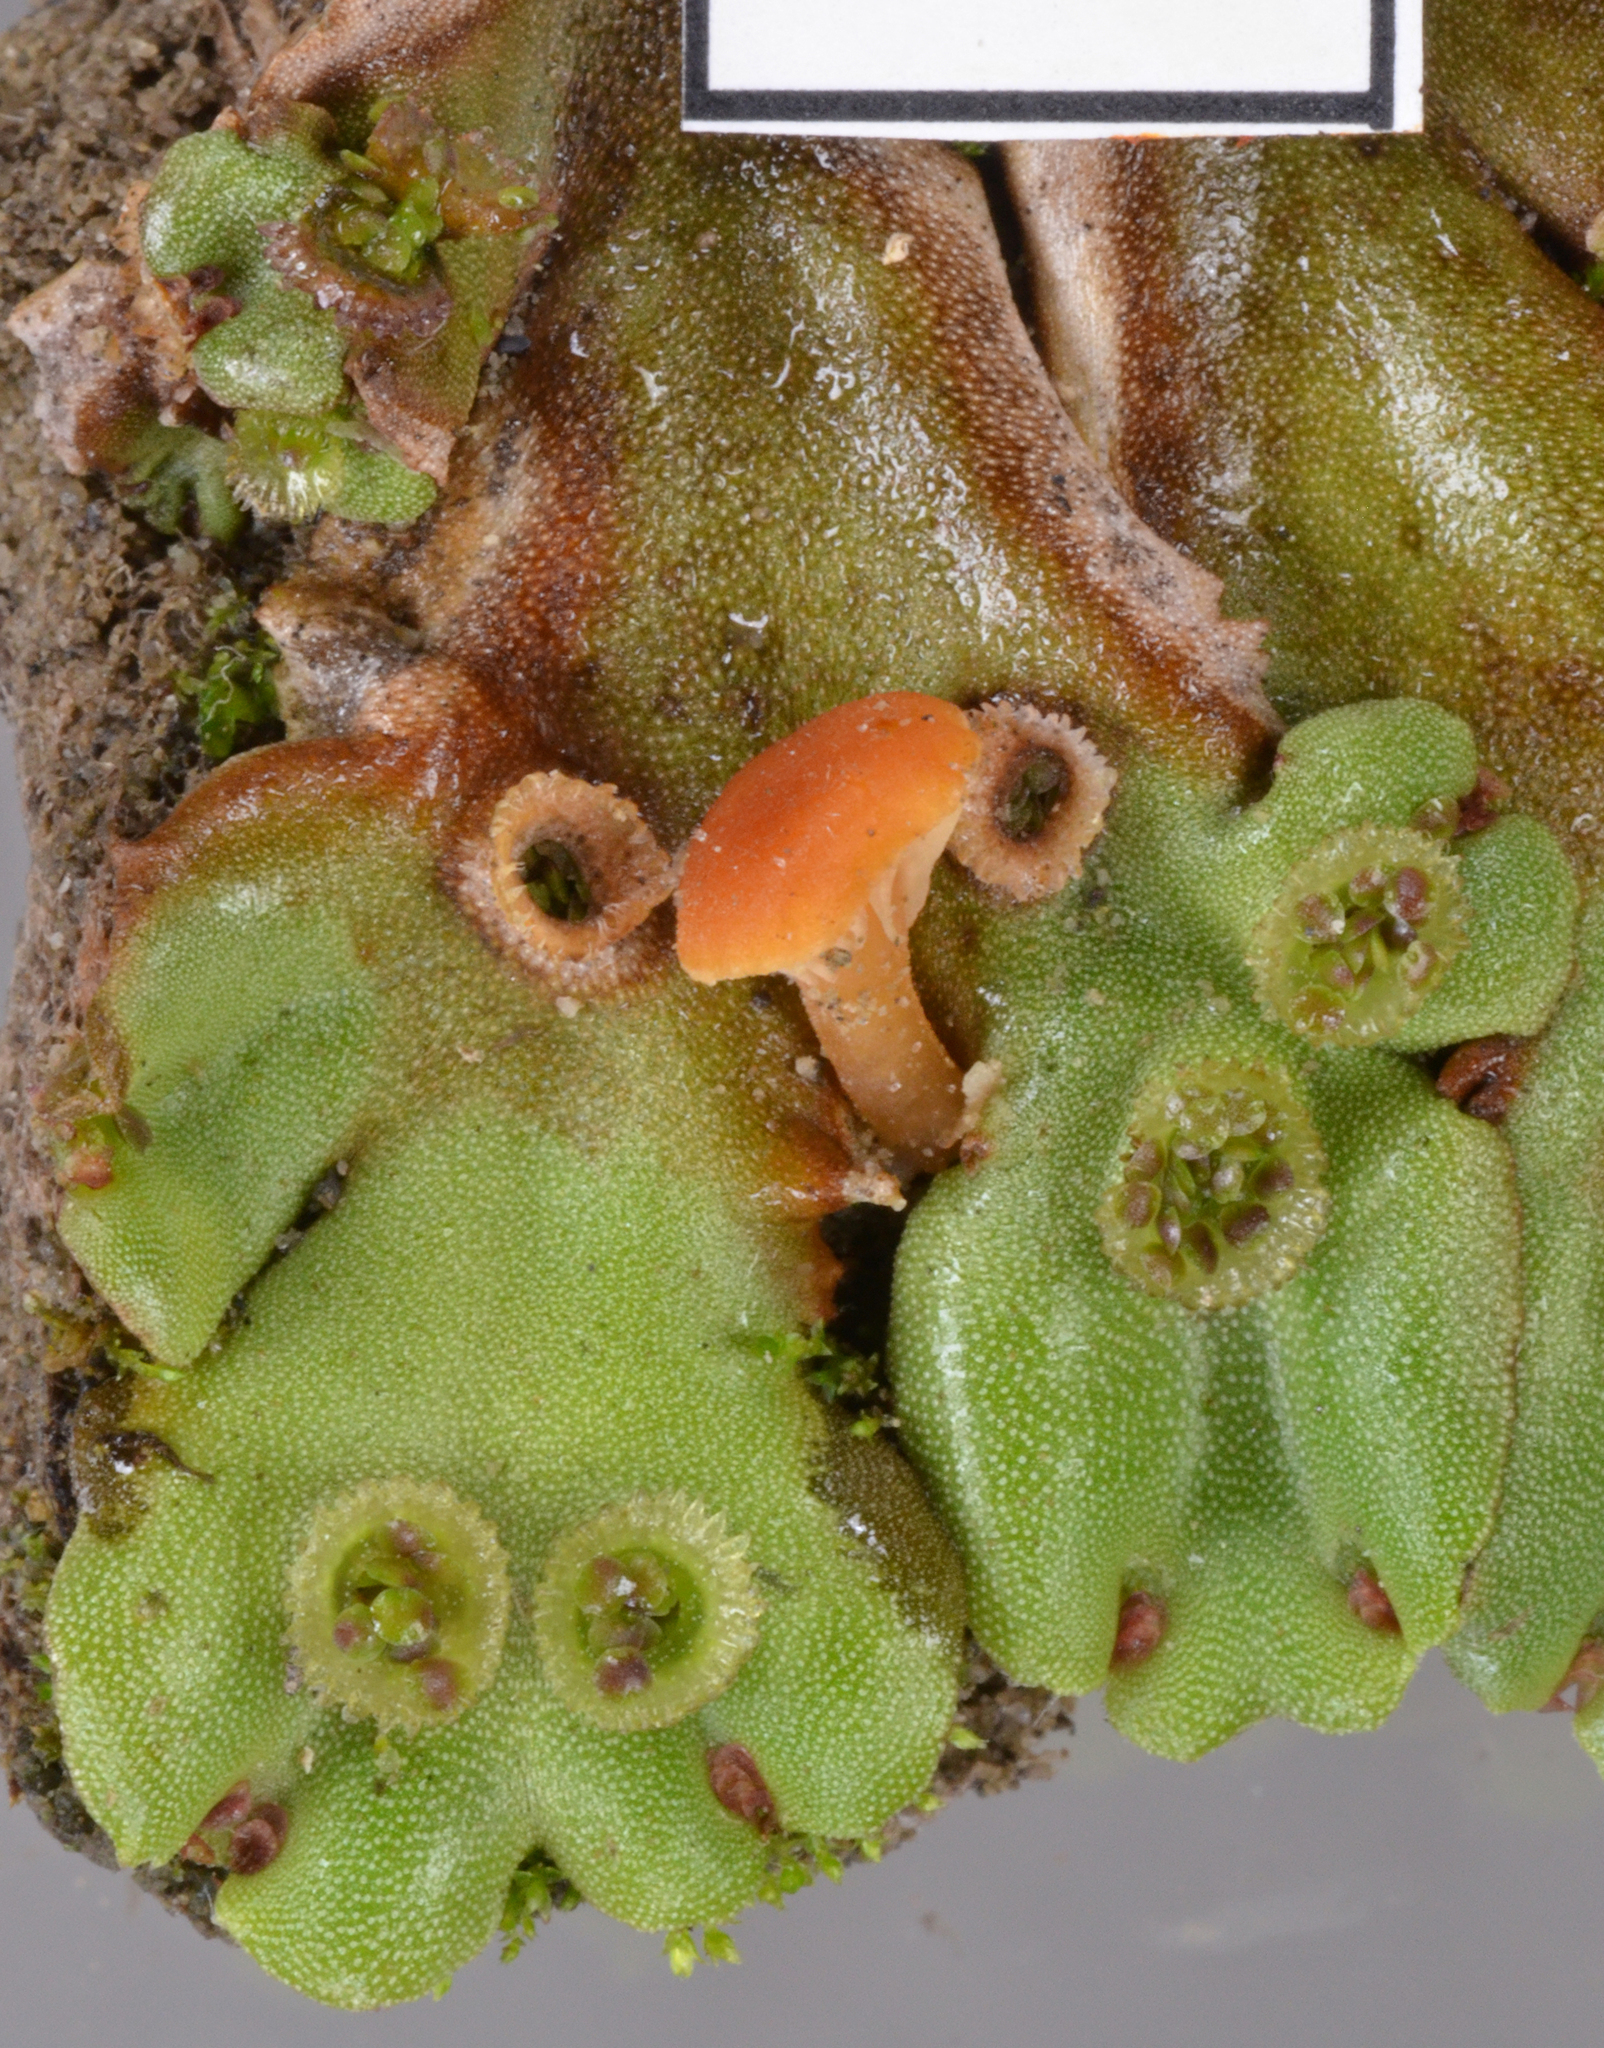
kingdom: Fungi
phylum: Basidiomycota
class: Agaricomycetes
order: Hymenochaetales
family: Rickenellaceae
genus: Loreleia
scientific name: Loreleia postii
